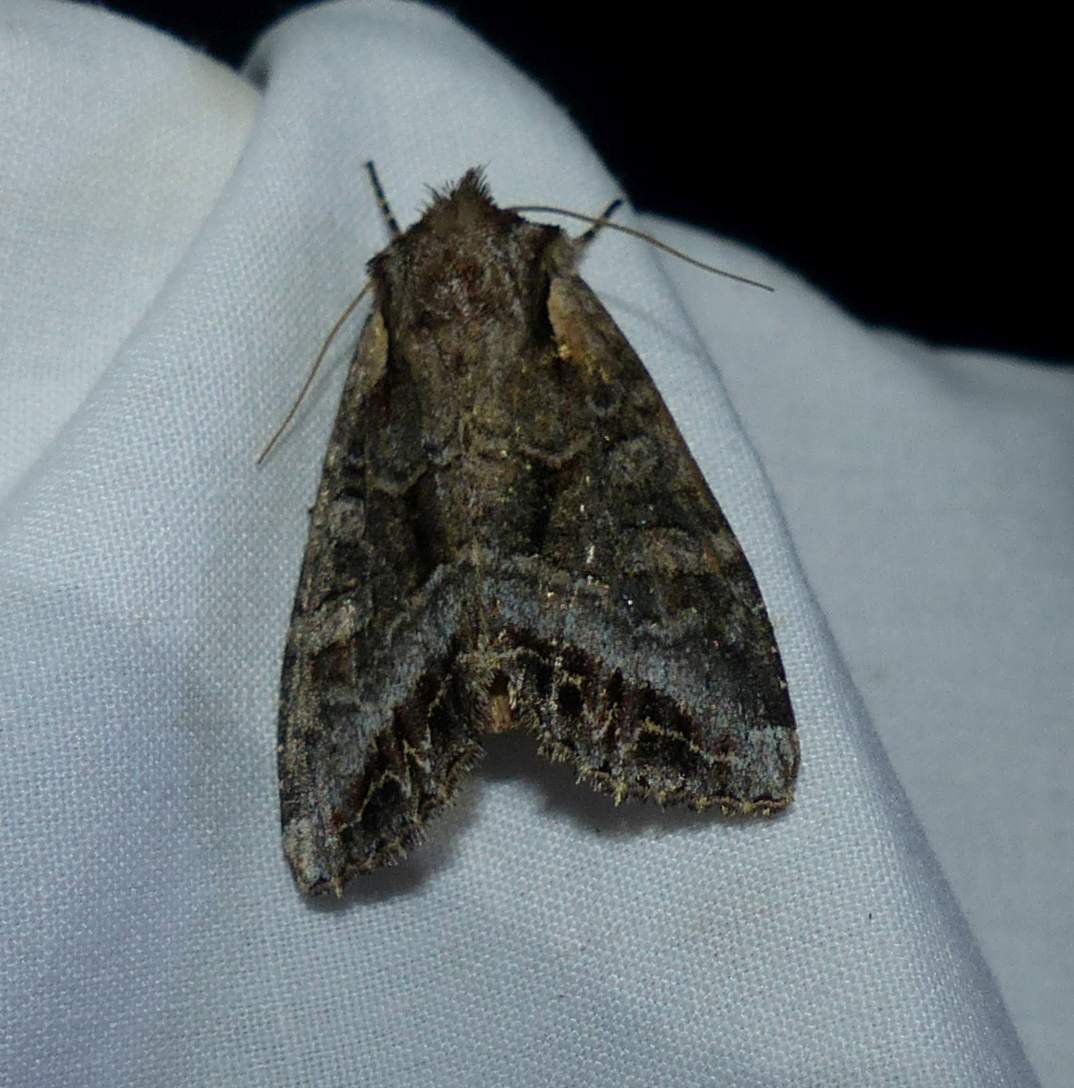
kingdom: Animalia
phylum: Arthropoda
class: Insecta
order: Lepidoptera
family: Noctuidae
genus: Lacanobia
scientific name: Lacanobia grandis
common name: Grand arches moth
